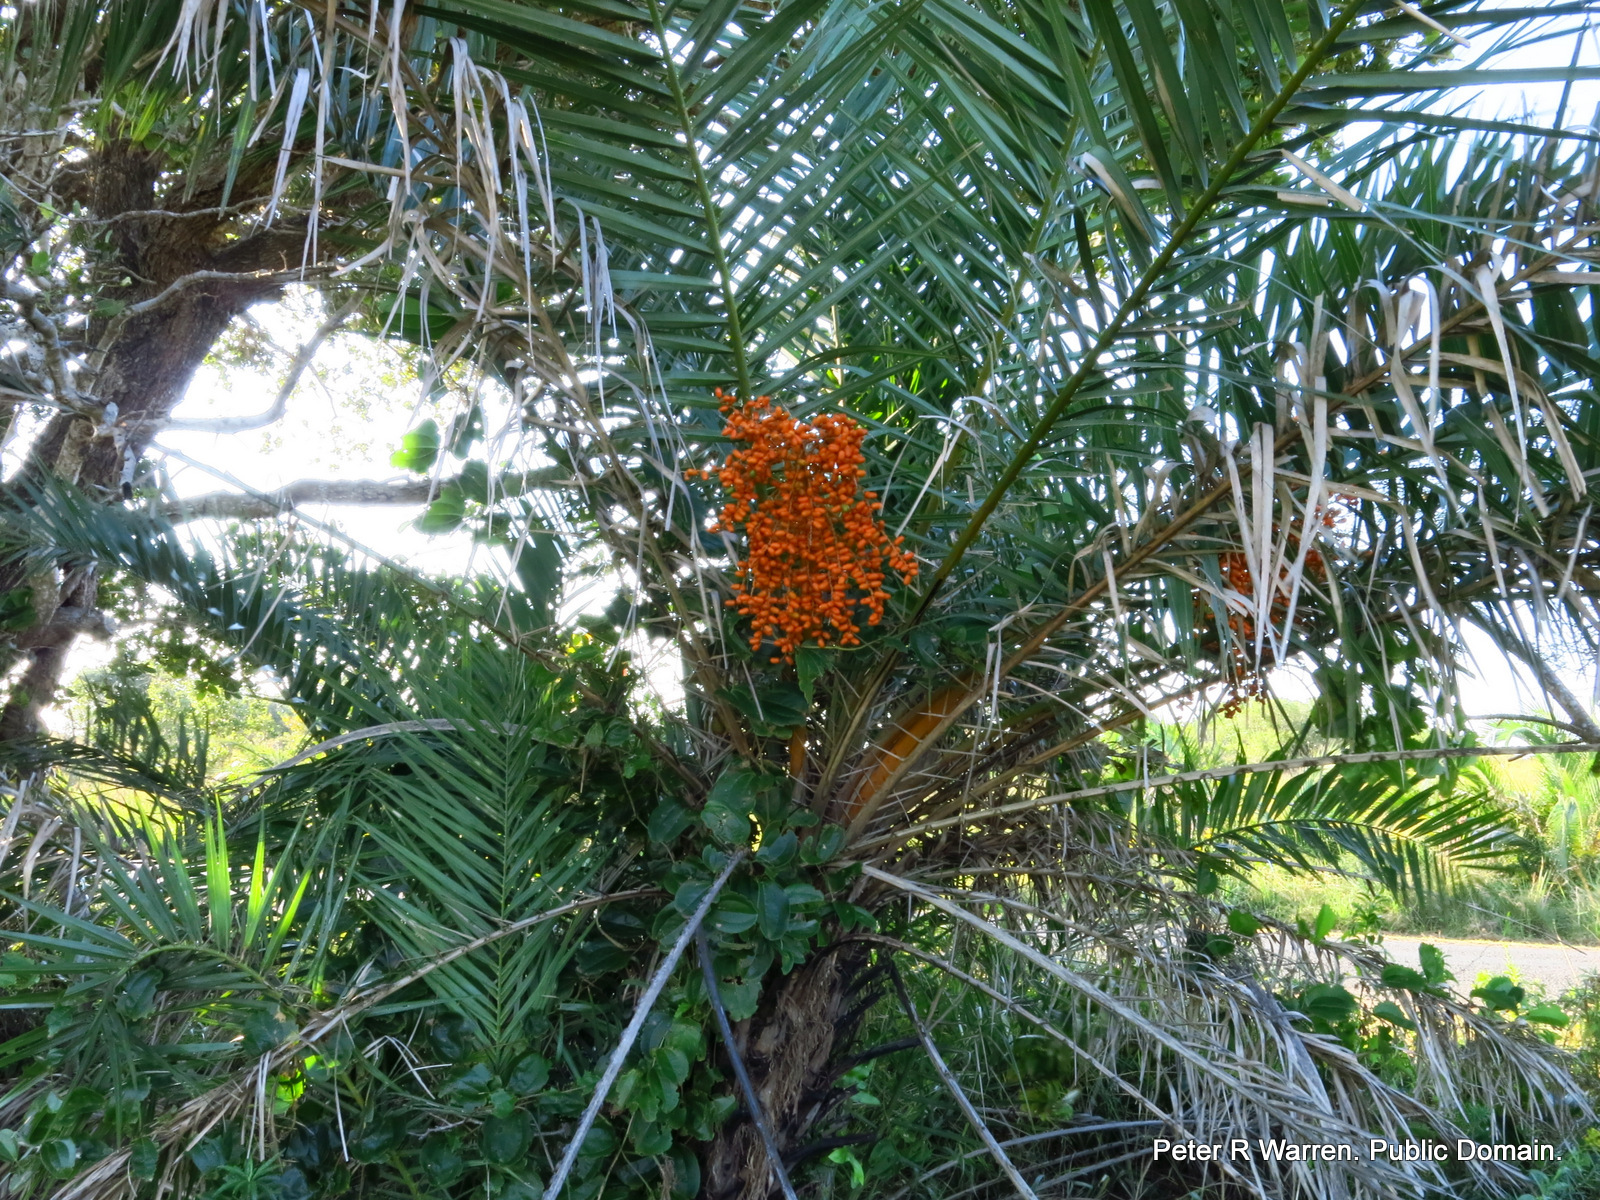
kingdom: Plantae
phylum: Tracheophyta
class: Liliopsida
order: Arecales
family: Arecaceae
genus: Phoenix
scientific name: Phoenix reclinata
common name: Senegal date palm
